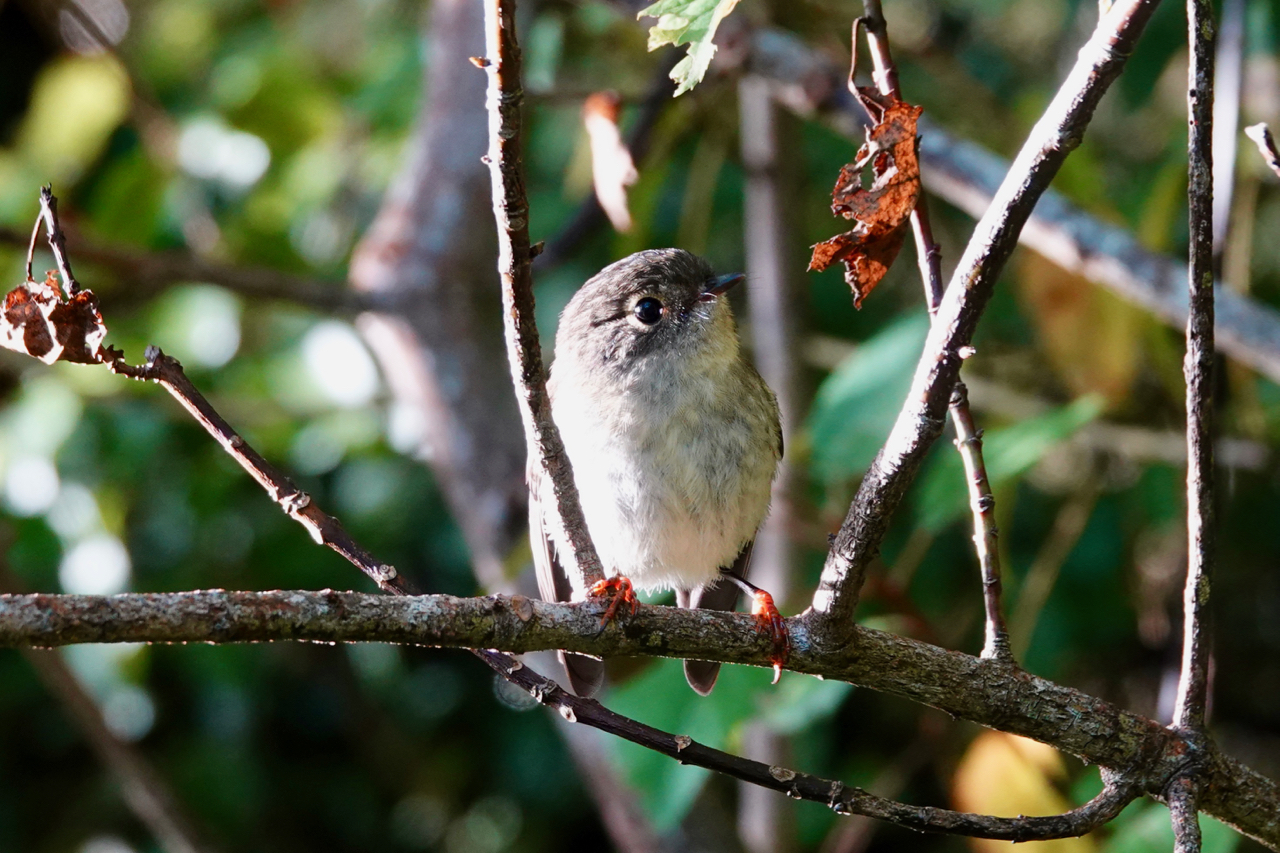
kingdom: Animalia
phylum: Chordata
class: Aves
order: Passeriformes
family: Petroicidae
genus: Petroica
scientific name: Petroica macrocephala
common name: Tomtit
